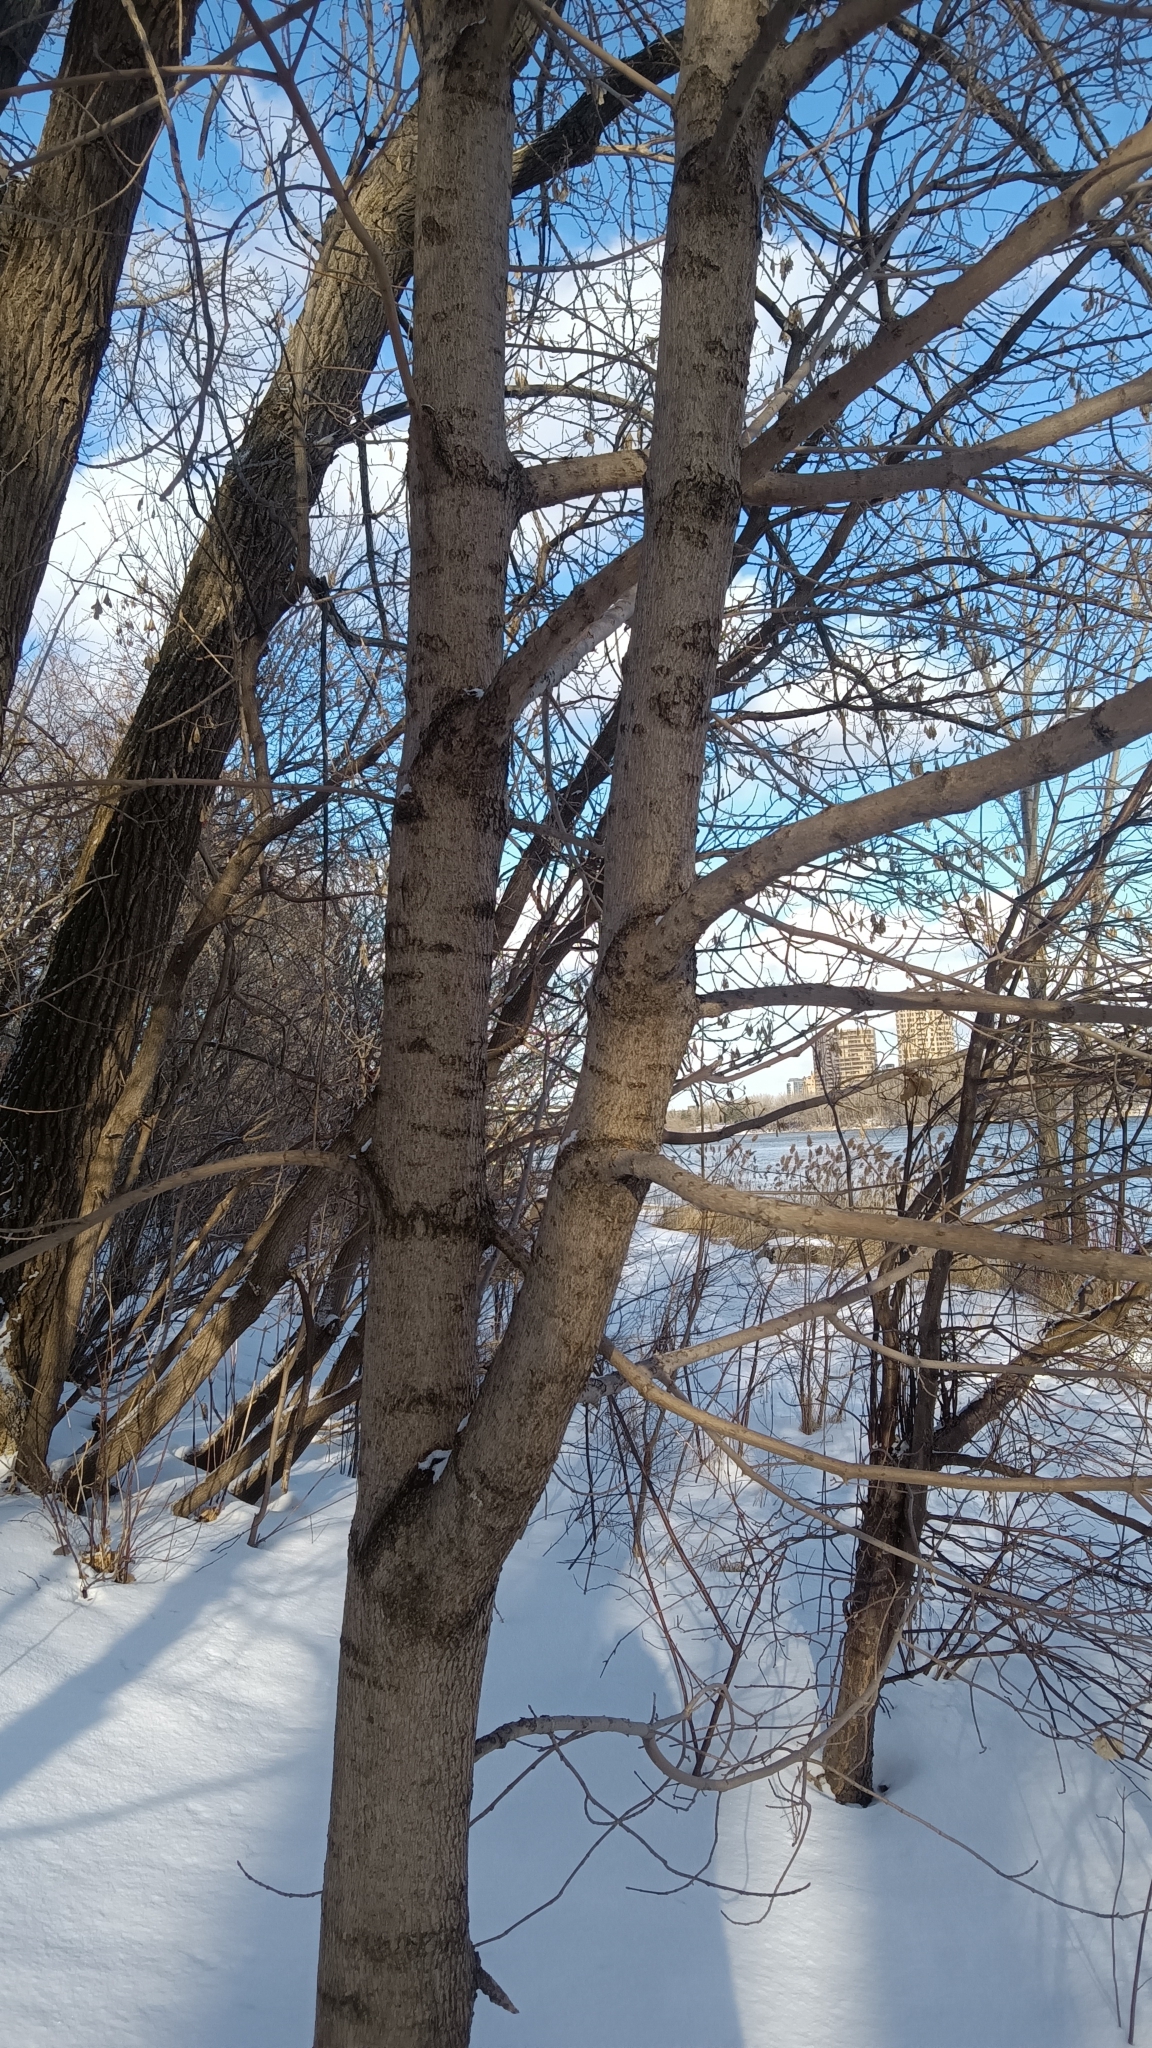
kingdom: Plantae
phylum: Tracheophyta
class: Magnoliopsida
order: Sapindales
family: Sapindaceae
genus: Acer
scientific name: Acer platanoides
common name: Norway maple
